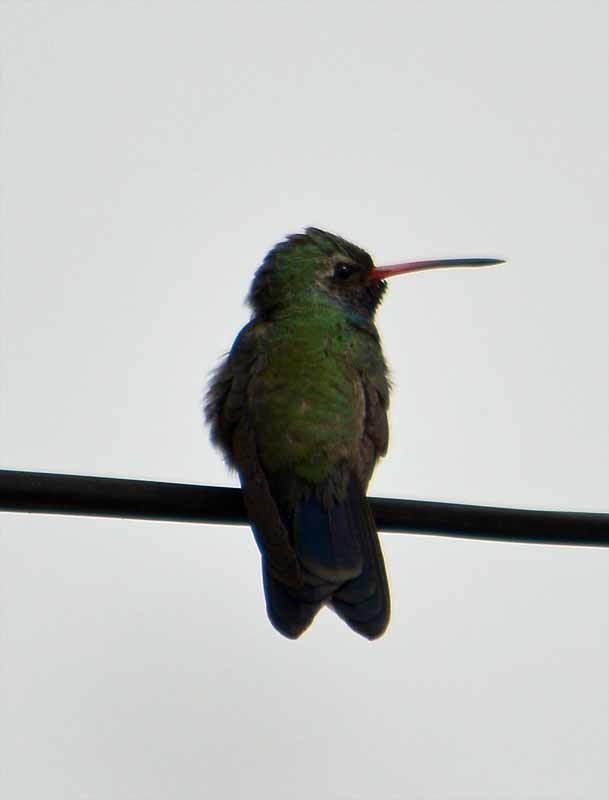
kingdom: Animalia
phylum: Chordata
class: Aves
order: Apodiformes
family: Trochilidae
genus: Cynanthus
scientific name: Cynanthus latirostris
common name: Broad-billed hummingbird
